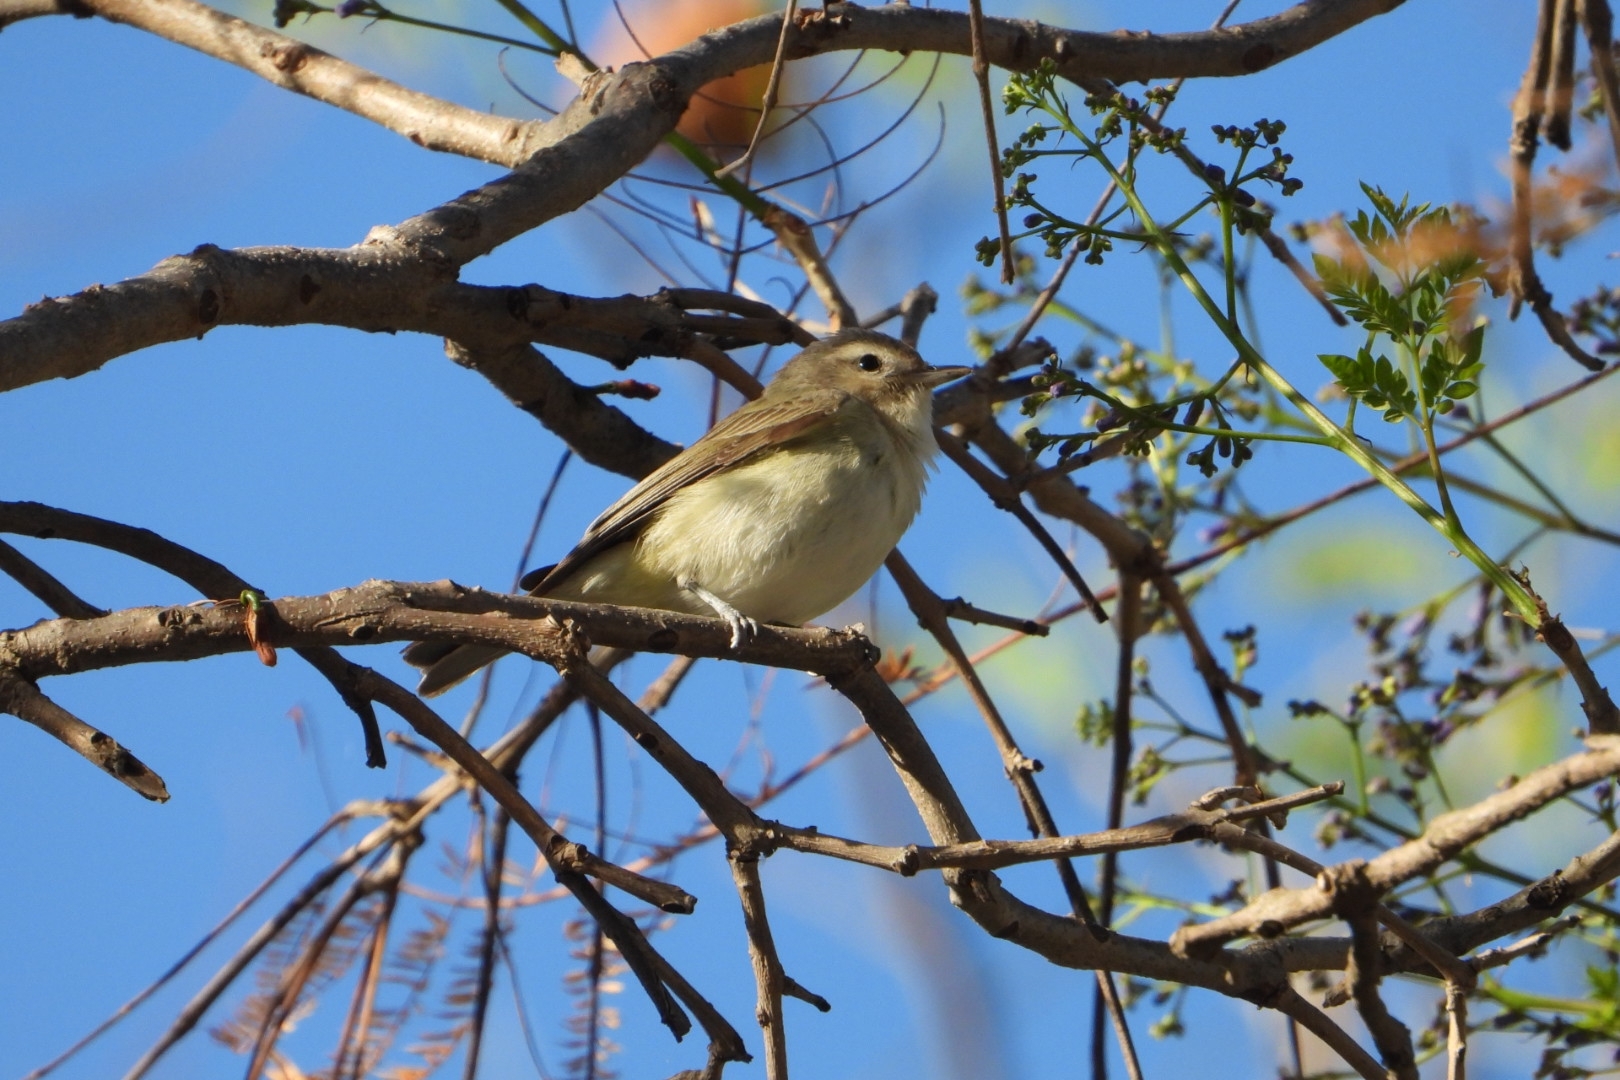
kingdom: Animalia
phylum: Chordata
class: Aves
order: Passeriformes
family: Vireonidae
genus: Vireo
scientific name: Vireo gilvus
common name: Warbling vireo
